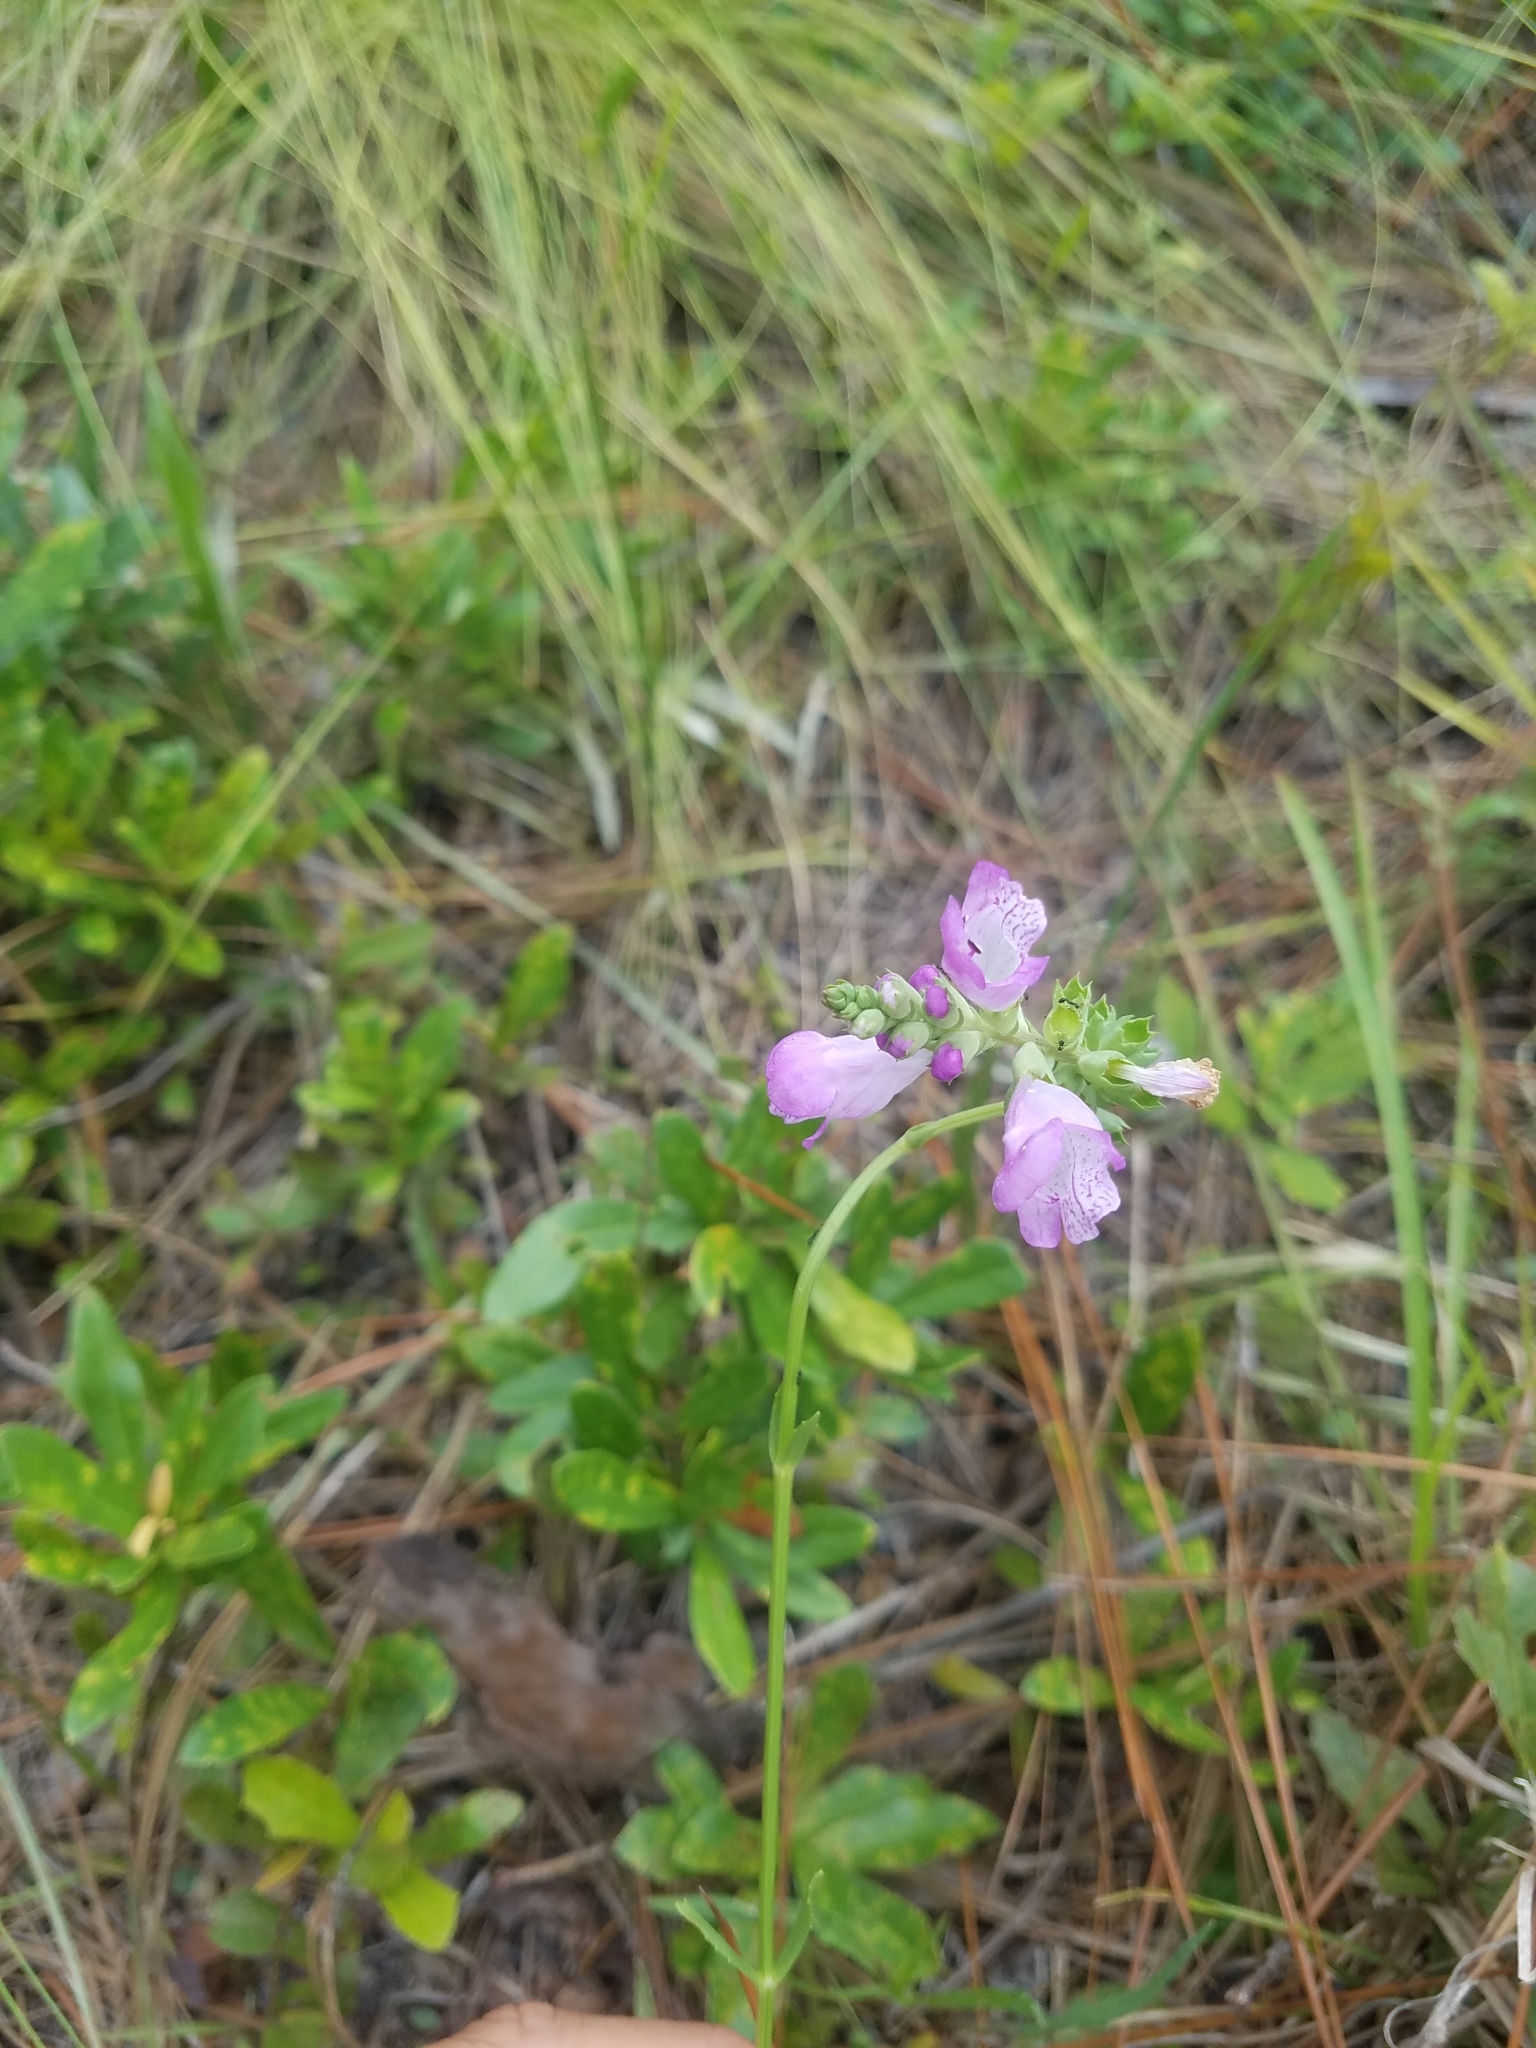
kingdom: Plantae
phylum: Tracheophyta
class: Magnoliopsida
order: Lamiales
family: Lamiaceae
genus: Physostegia
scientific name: Physostegia purpurea
